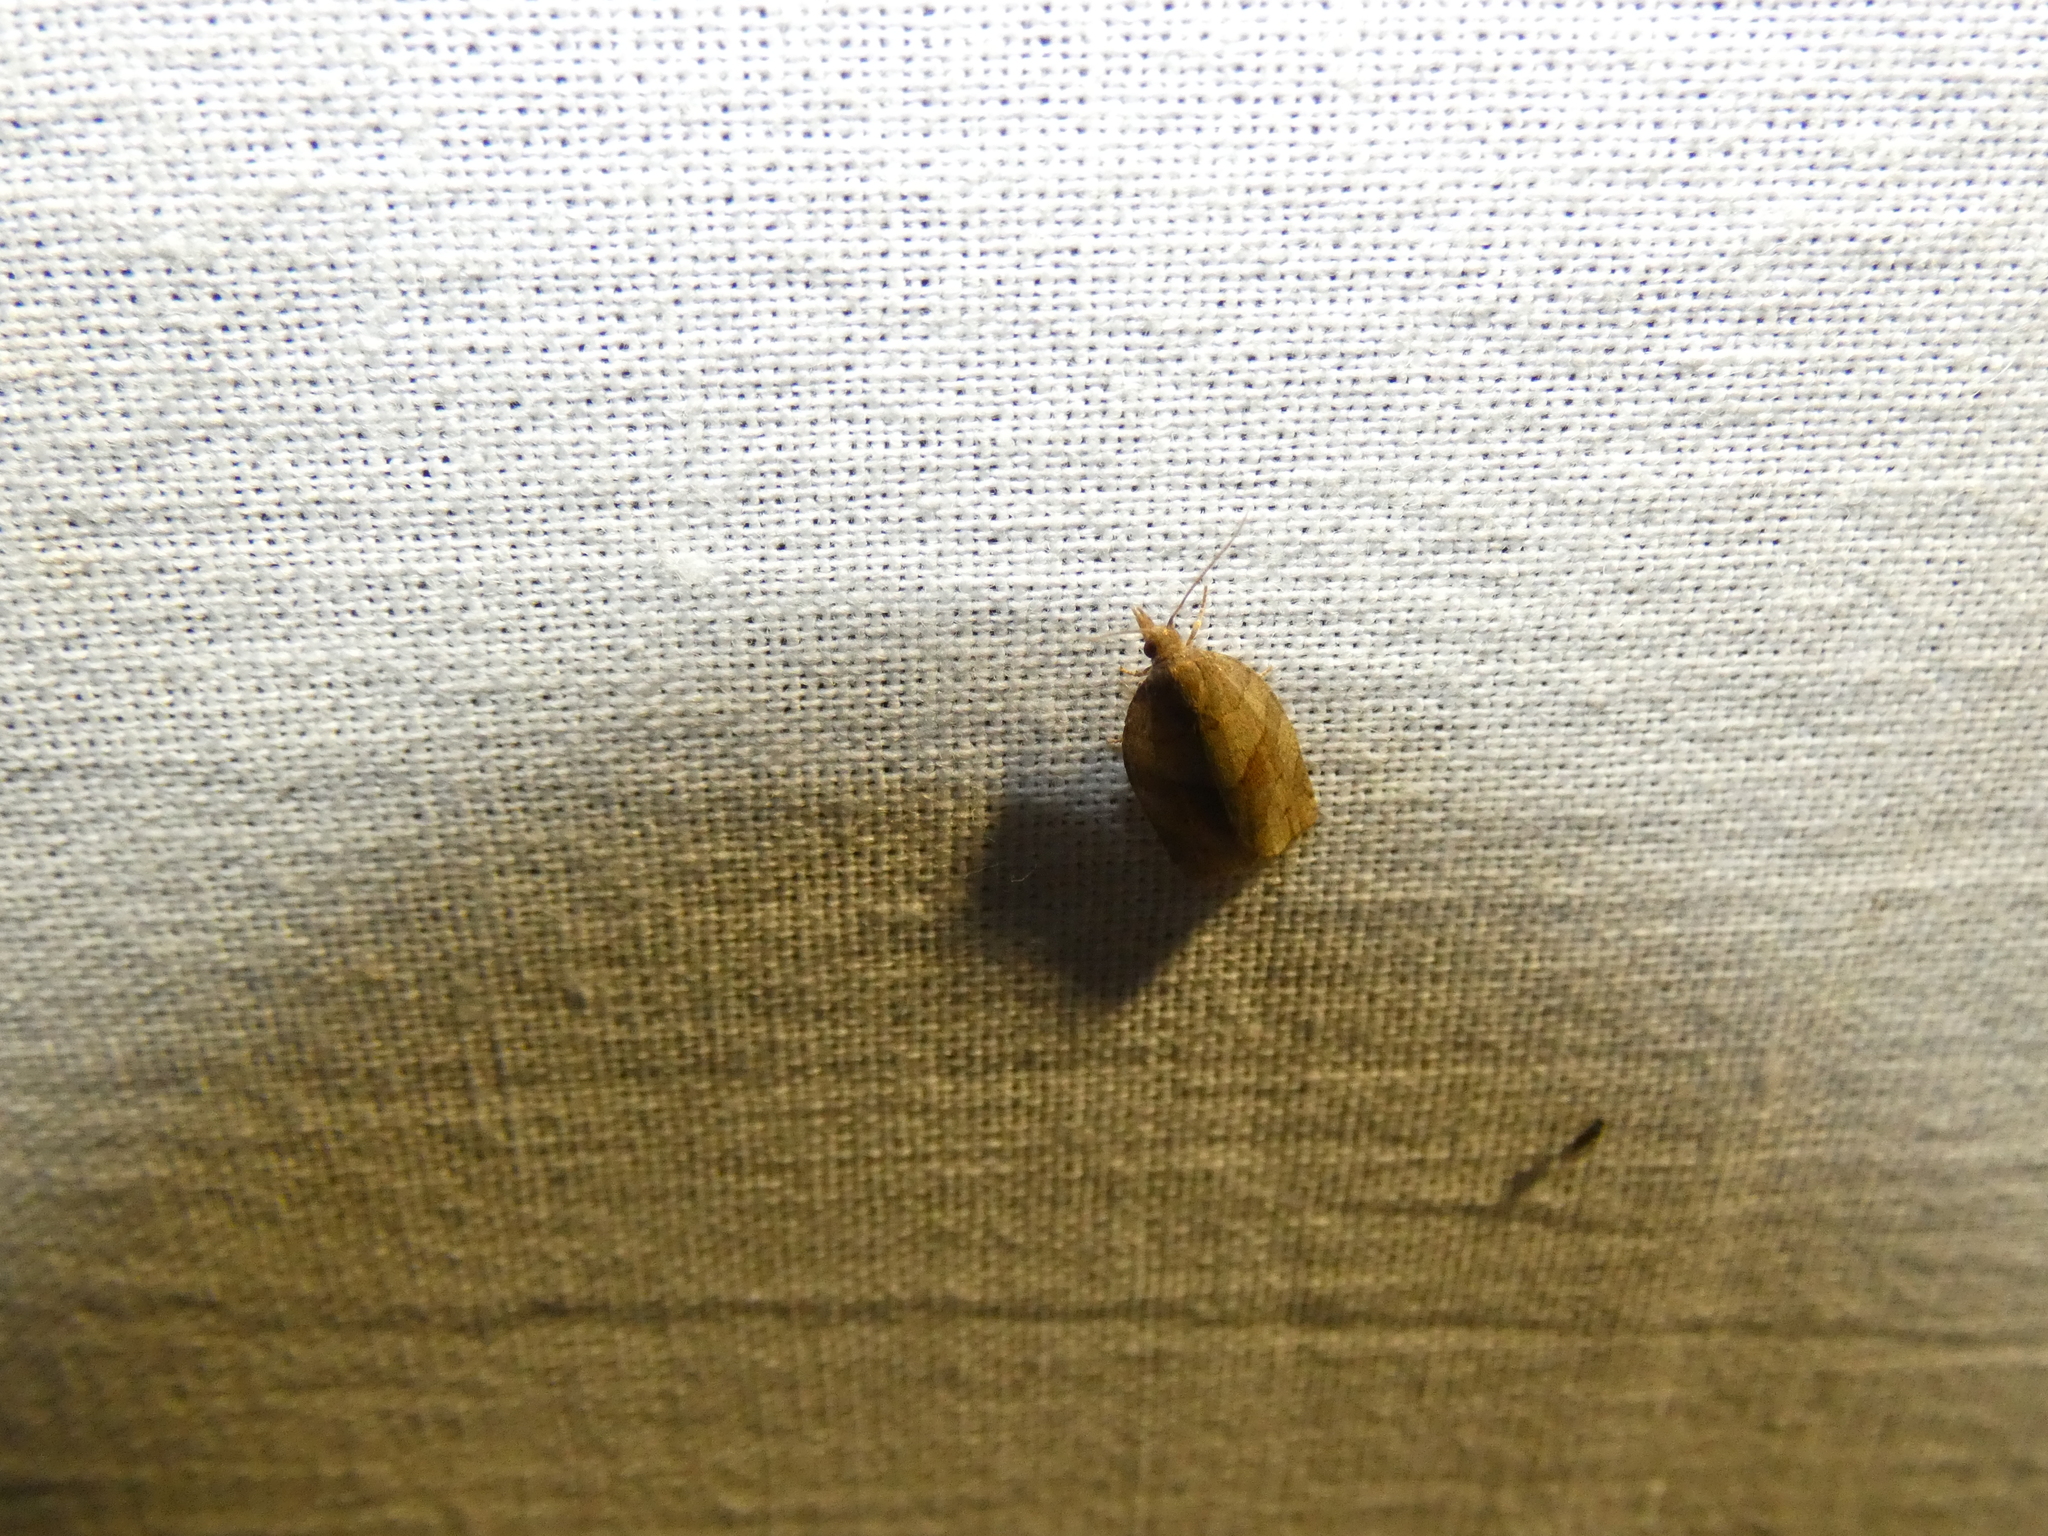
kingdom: Animalia
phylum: Arthropoda
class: Insecta
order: Lepidoptera
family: Tortricidae
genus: Pandemis
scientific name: Pandemis dumetana
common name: Thicket twist
